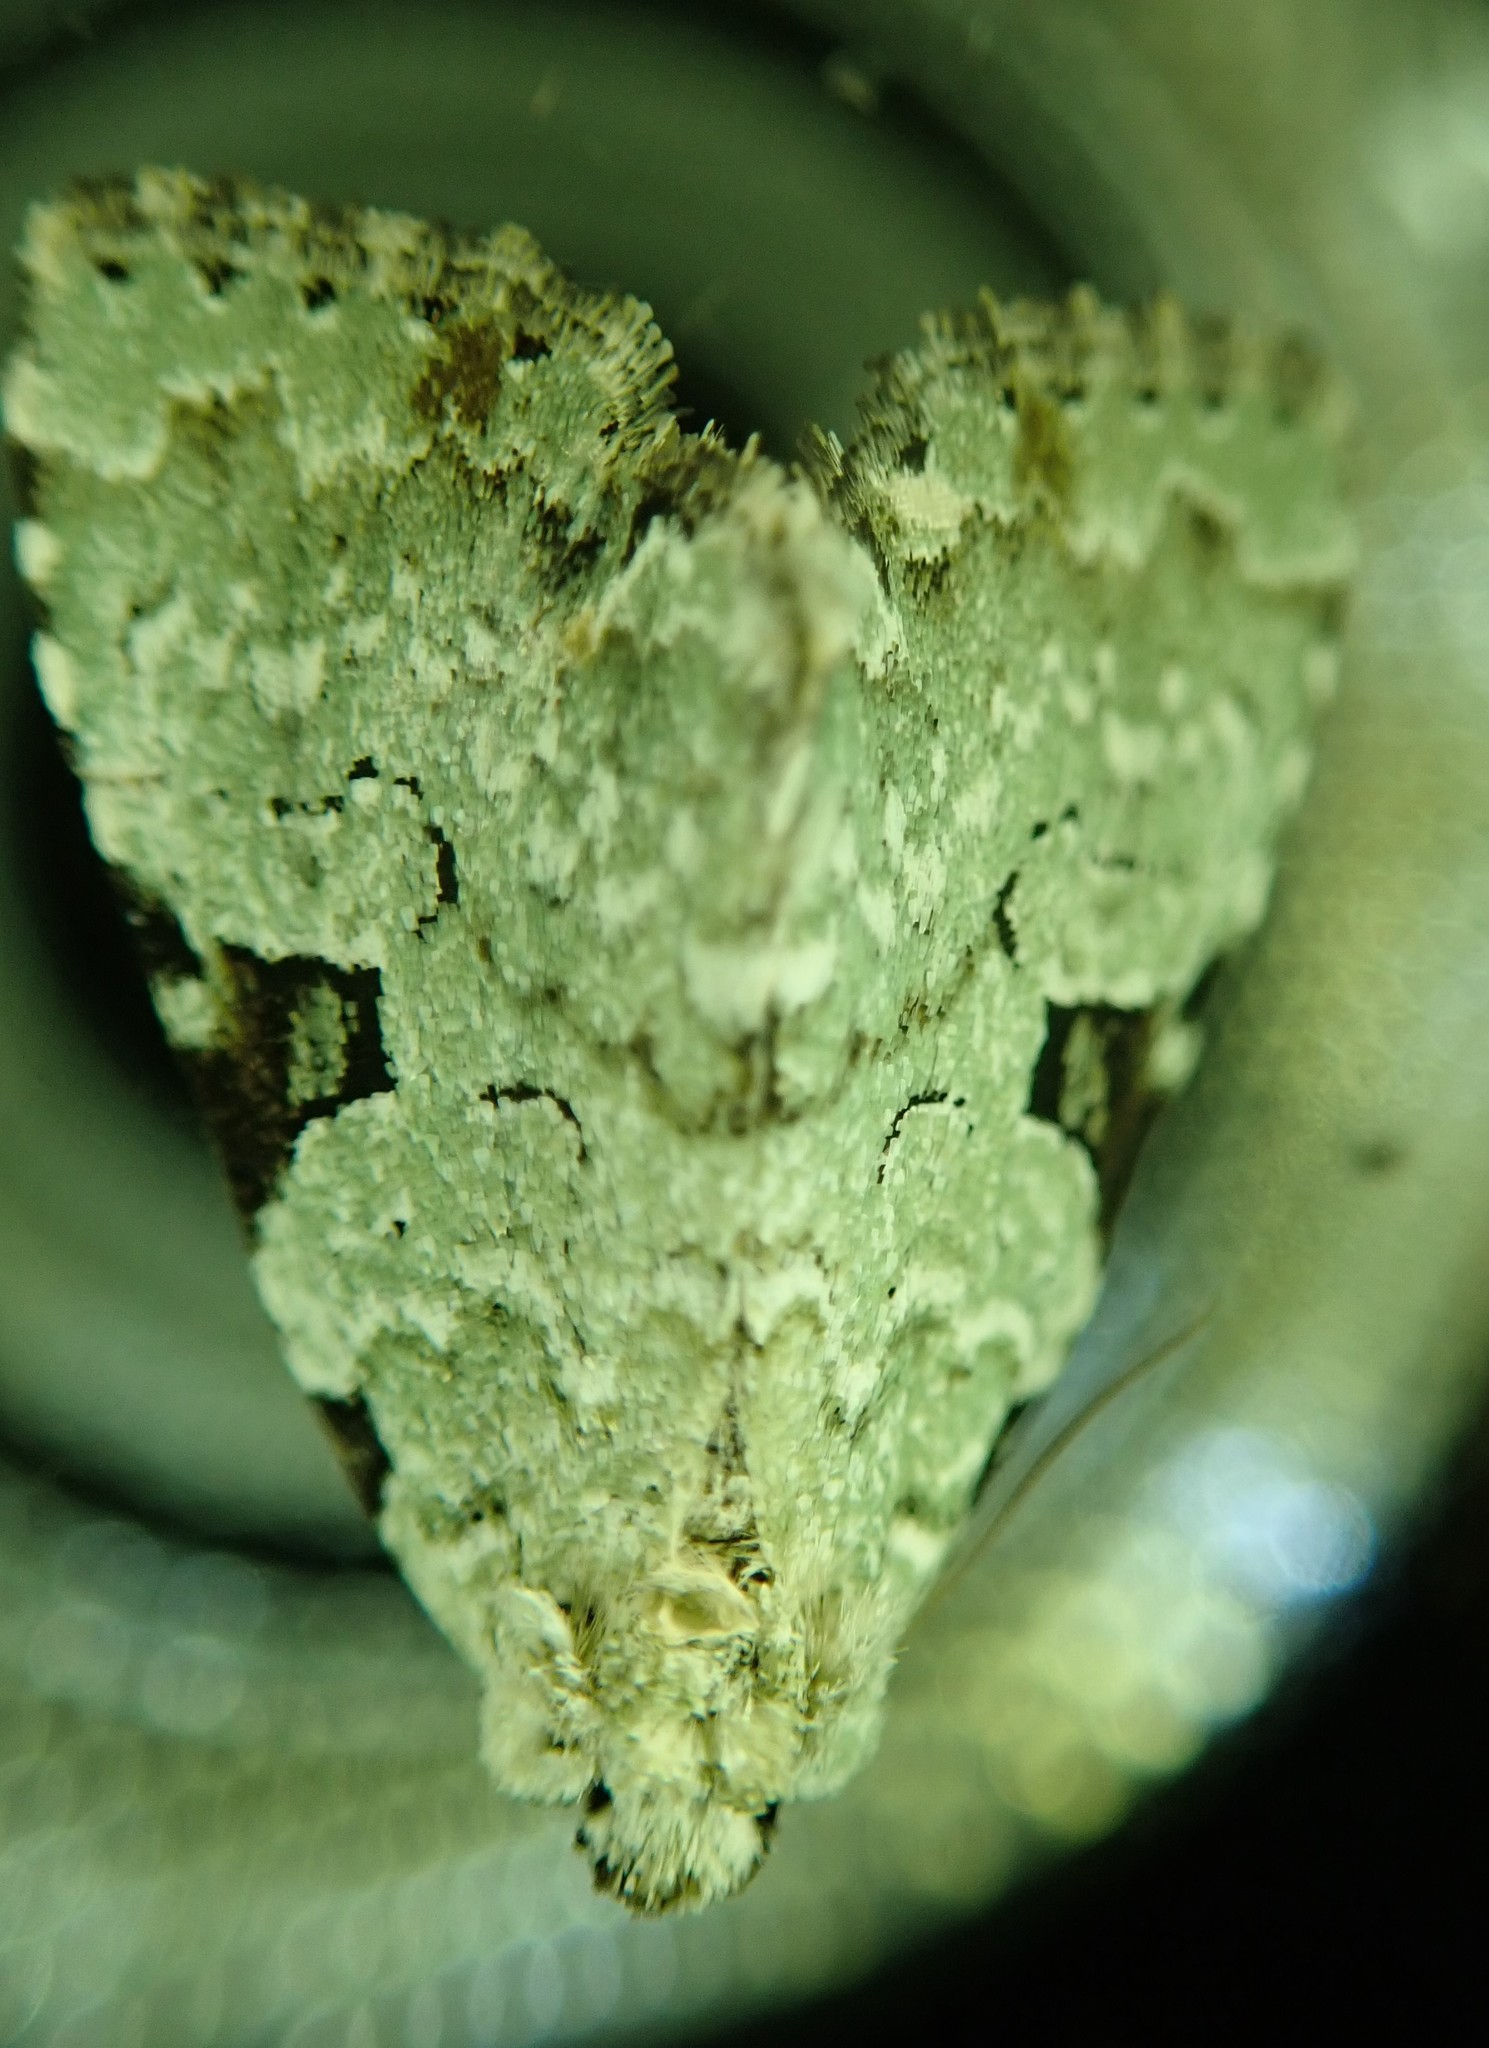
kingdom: Animalia
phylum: Arthropoda
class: Insecta
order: Lepidoptera
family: Noctuidae
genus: Leuconycta
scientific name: Leuconycta diphteroides
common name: Green leuconycta moth
